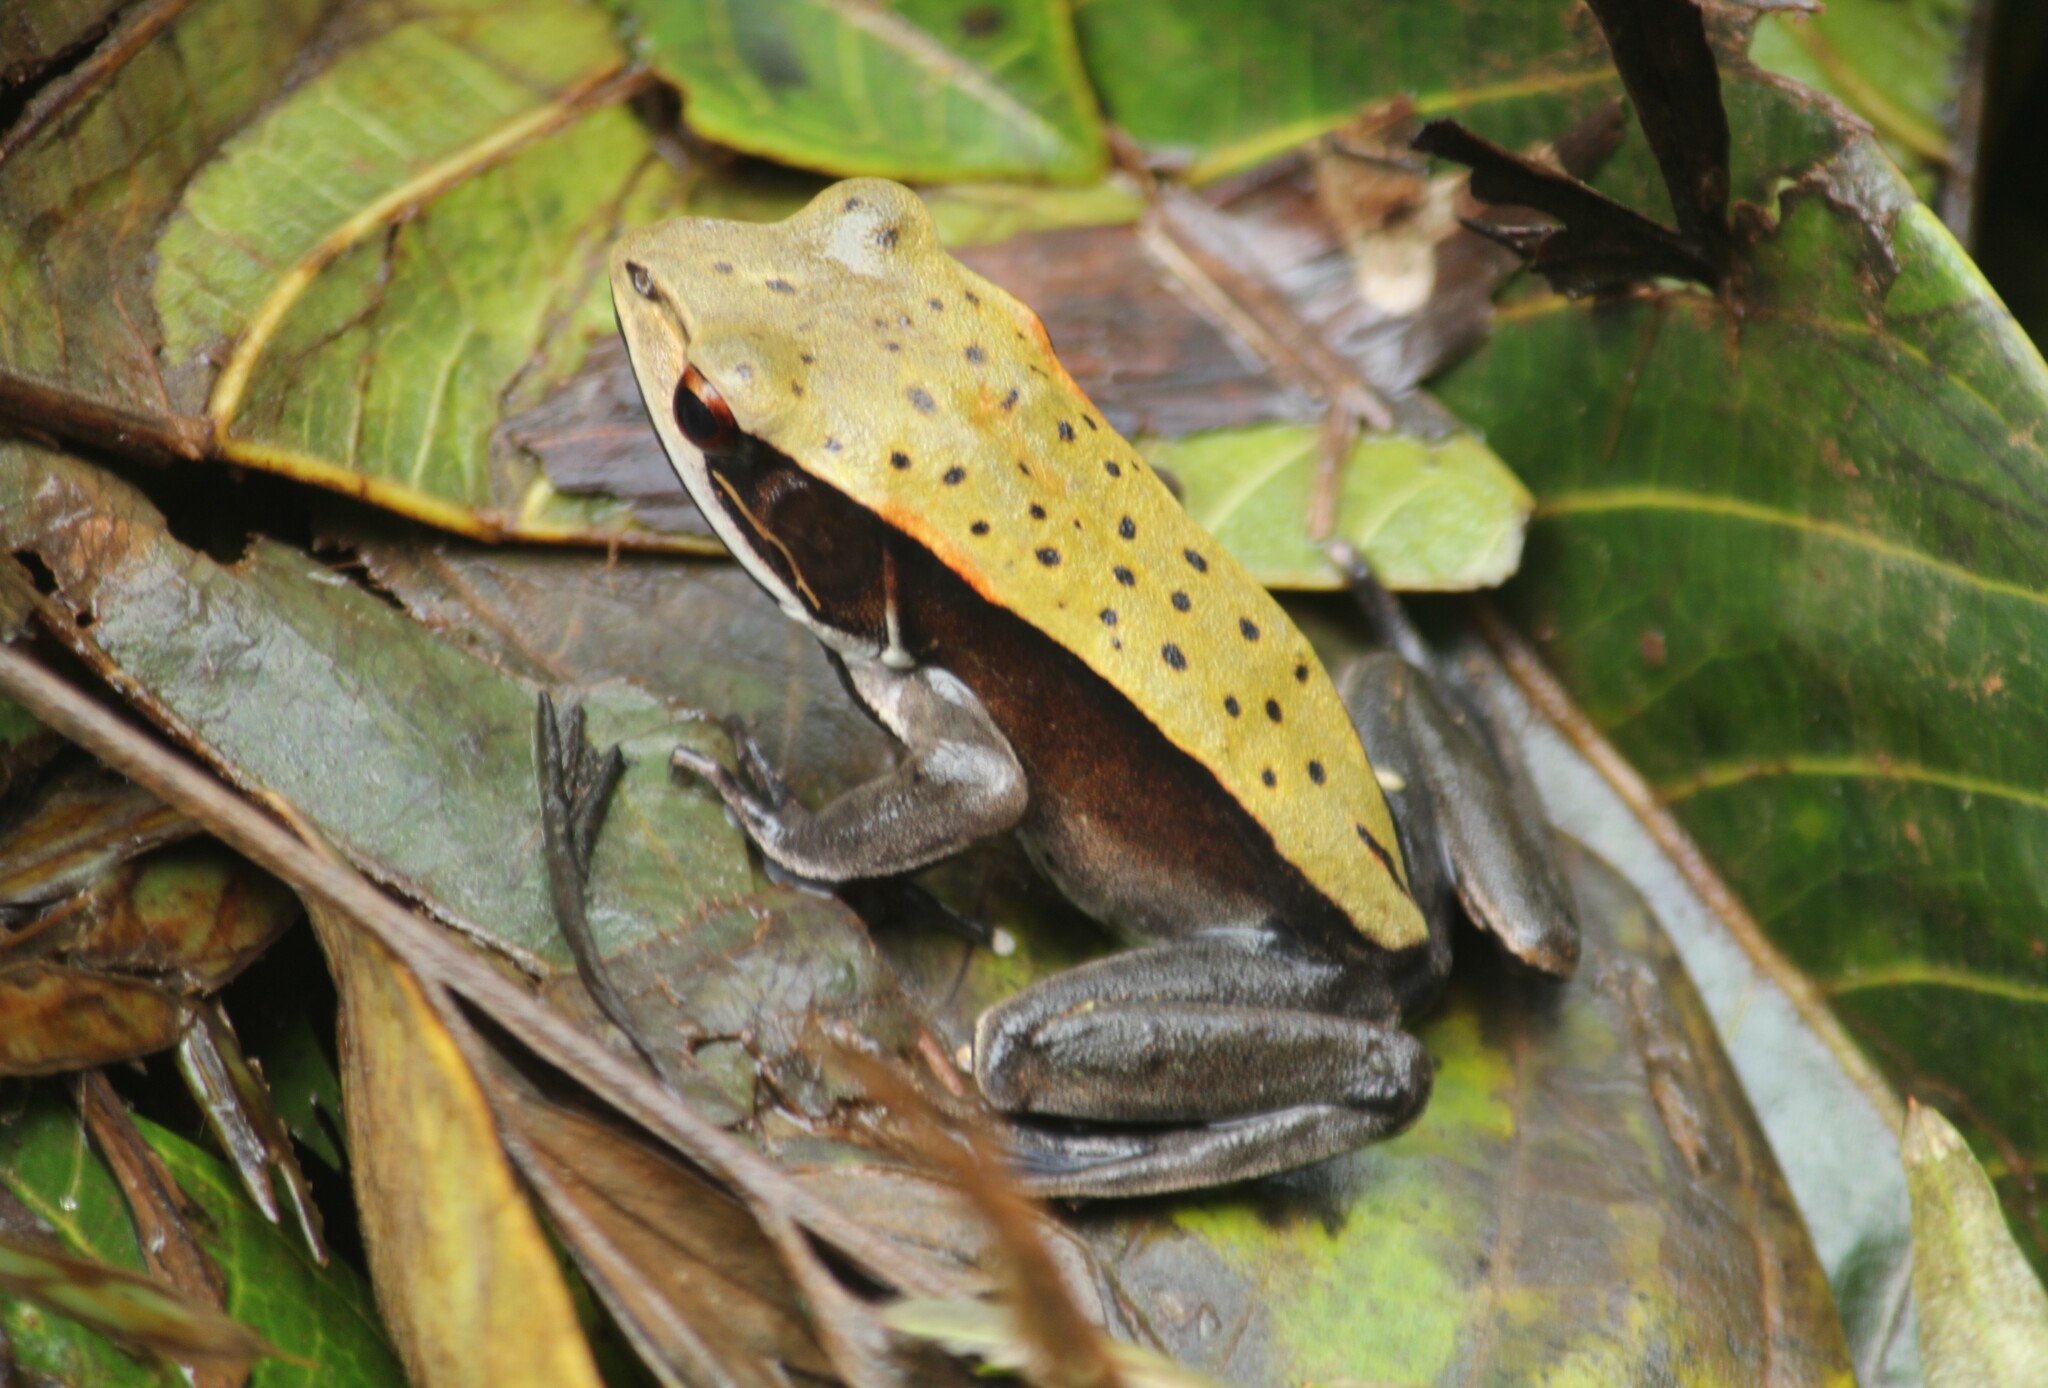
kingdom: Animalia
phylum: Chordata
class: Amphibia
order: Anura
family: Ranidae
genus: Clinotarsus
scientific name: Clinotarsus curtipes
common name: Bicoloured frog
